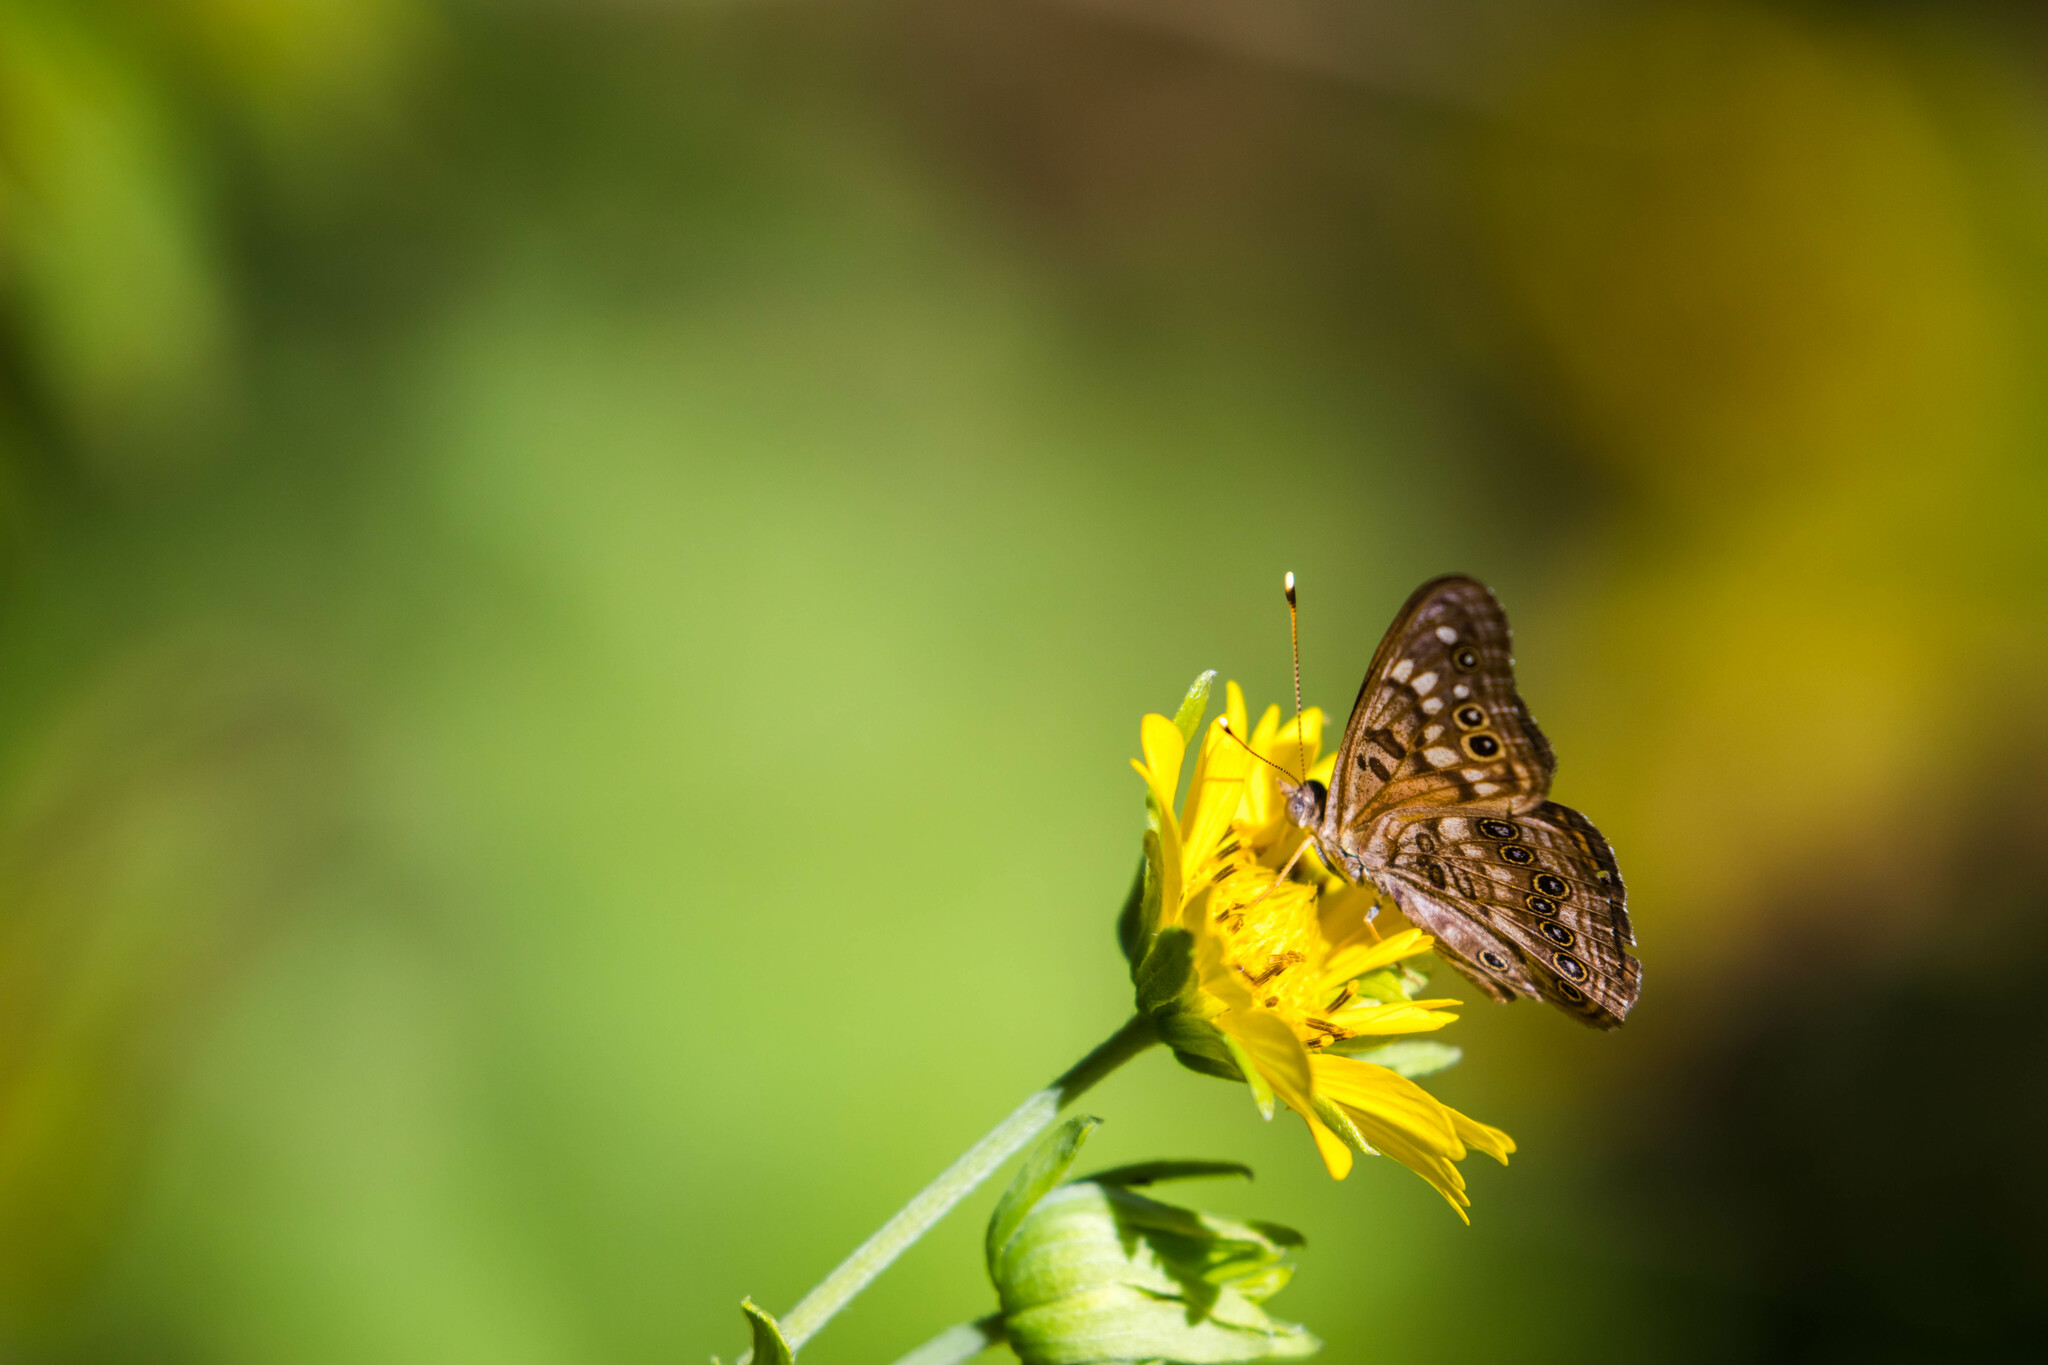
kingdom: Animalia
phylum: Arthropoda
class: Insecta
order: Lepidoptera
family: Nymphalidae
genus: Asterocampa
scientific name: Asterocampa celtis
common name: Hackberry emperor
